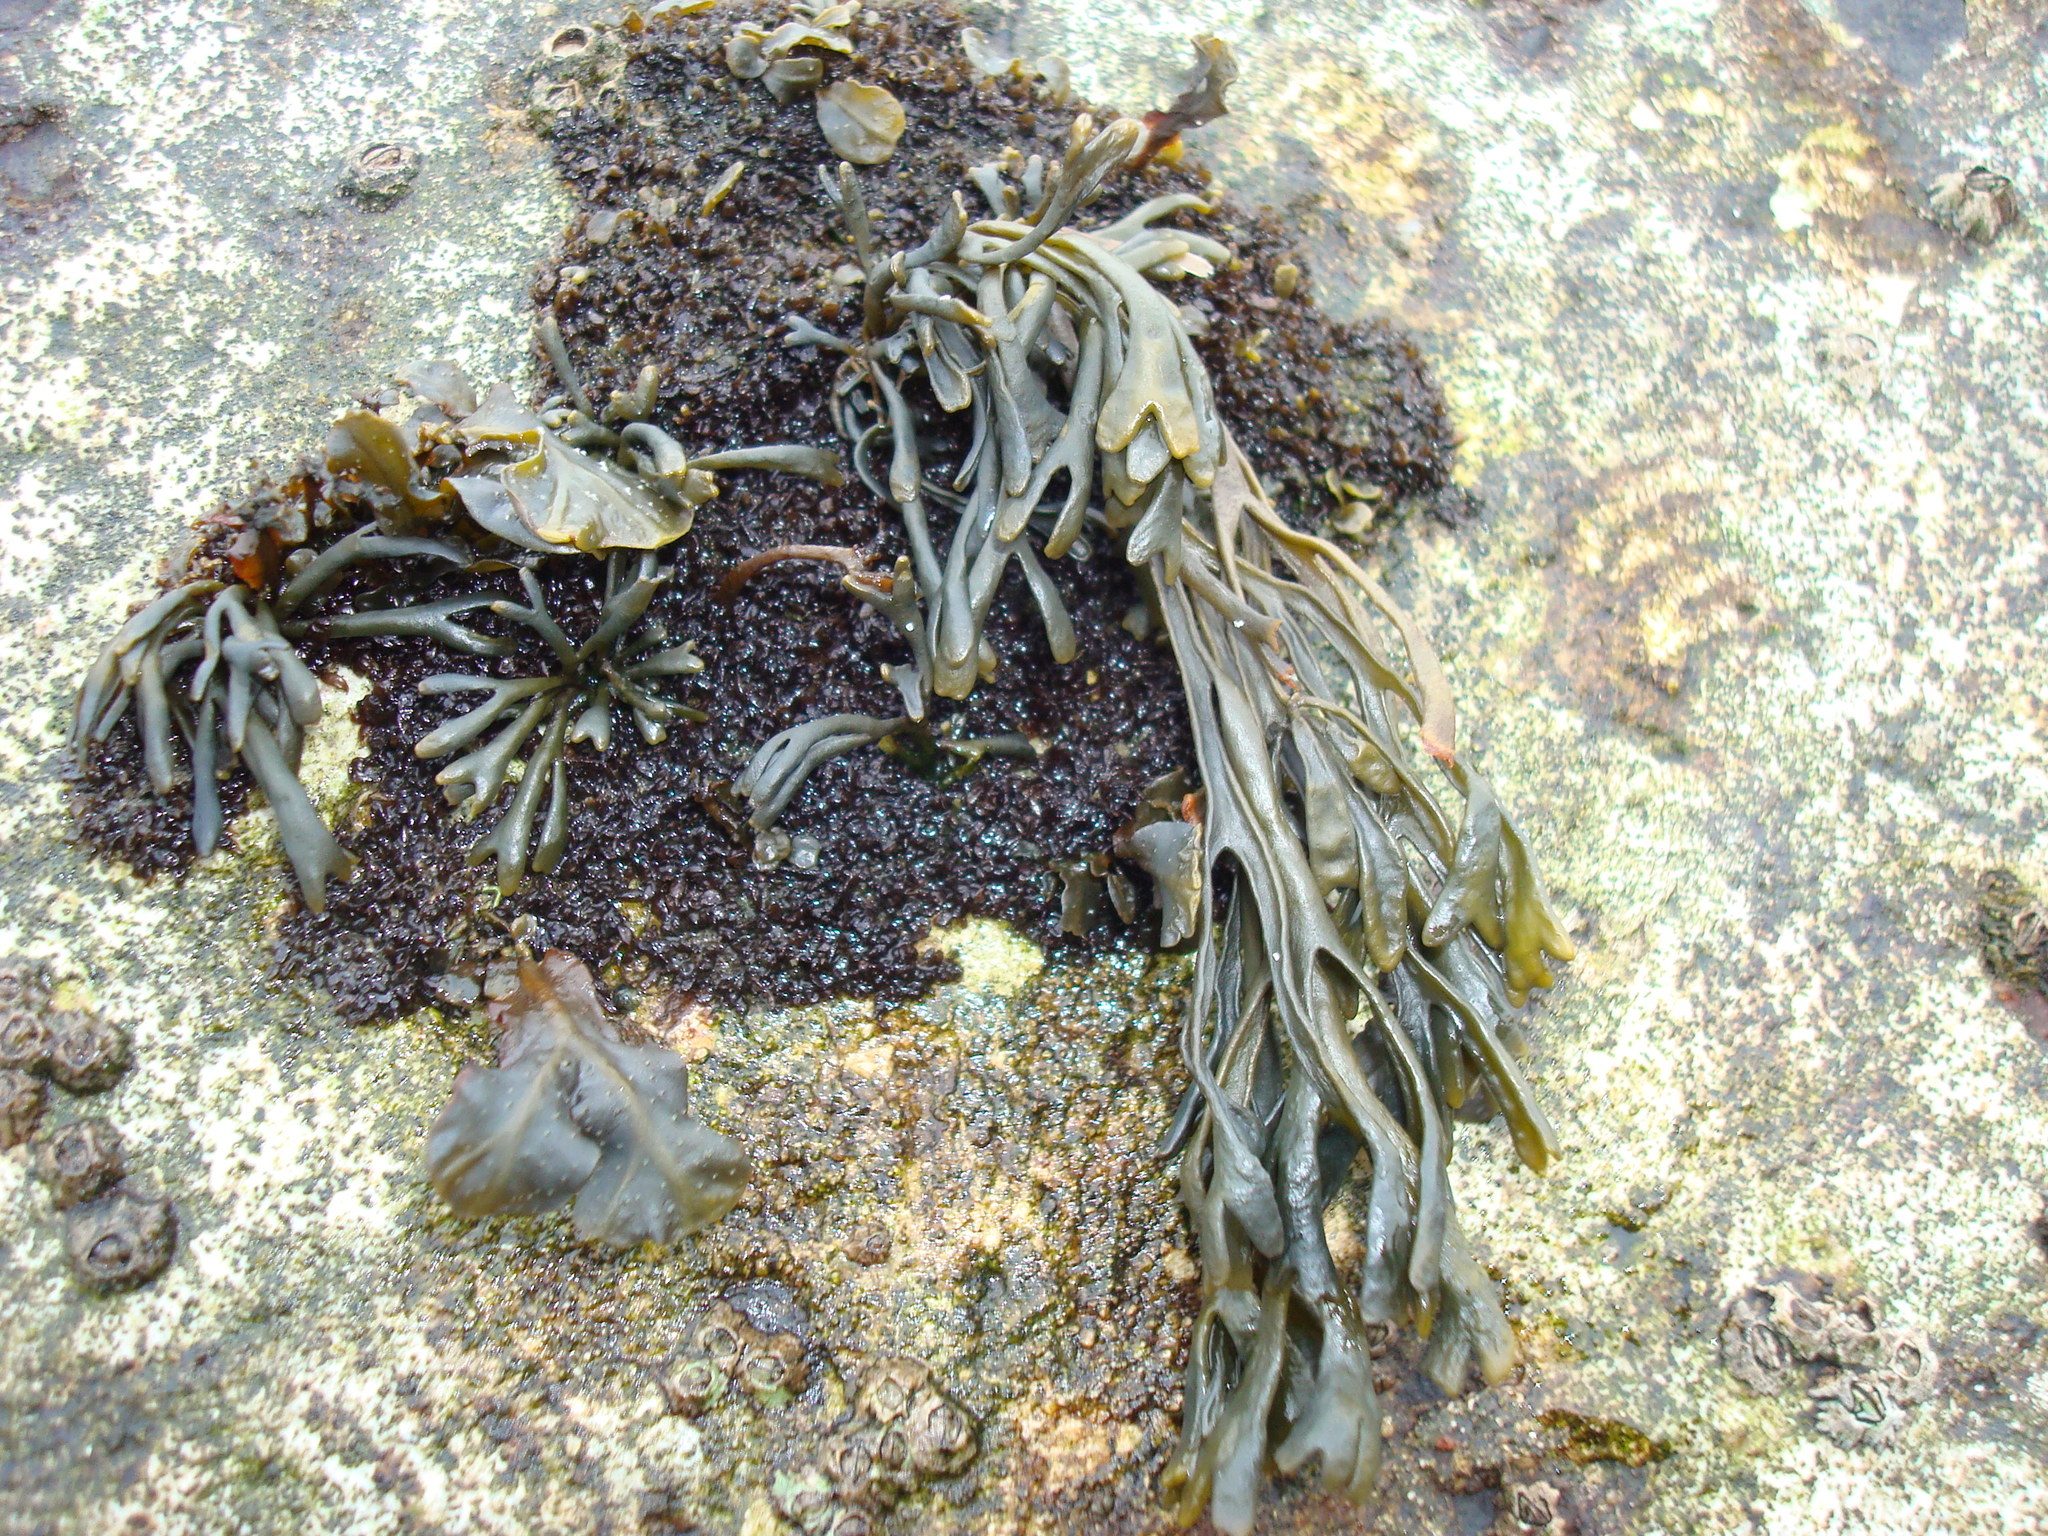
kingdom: Chromista
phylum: Ochrophyta
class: Phaeophyceae
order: Fucales
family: Fucaceae
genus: Pelvetia
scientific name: Pelvetia canaliculata
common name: Channelled wrack
